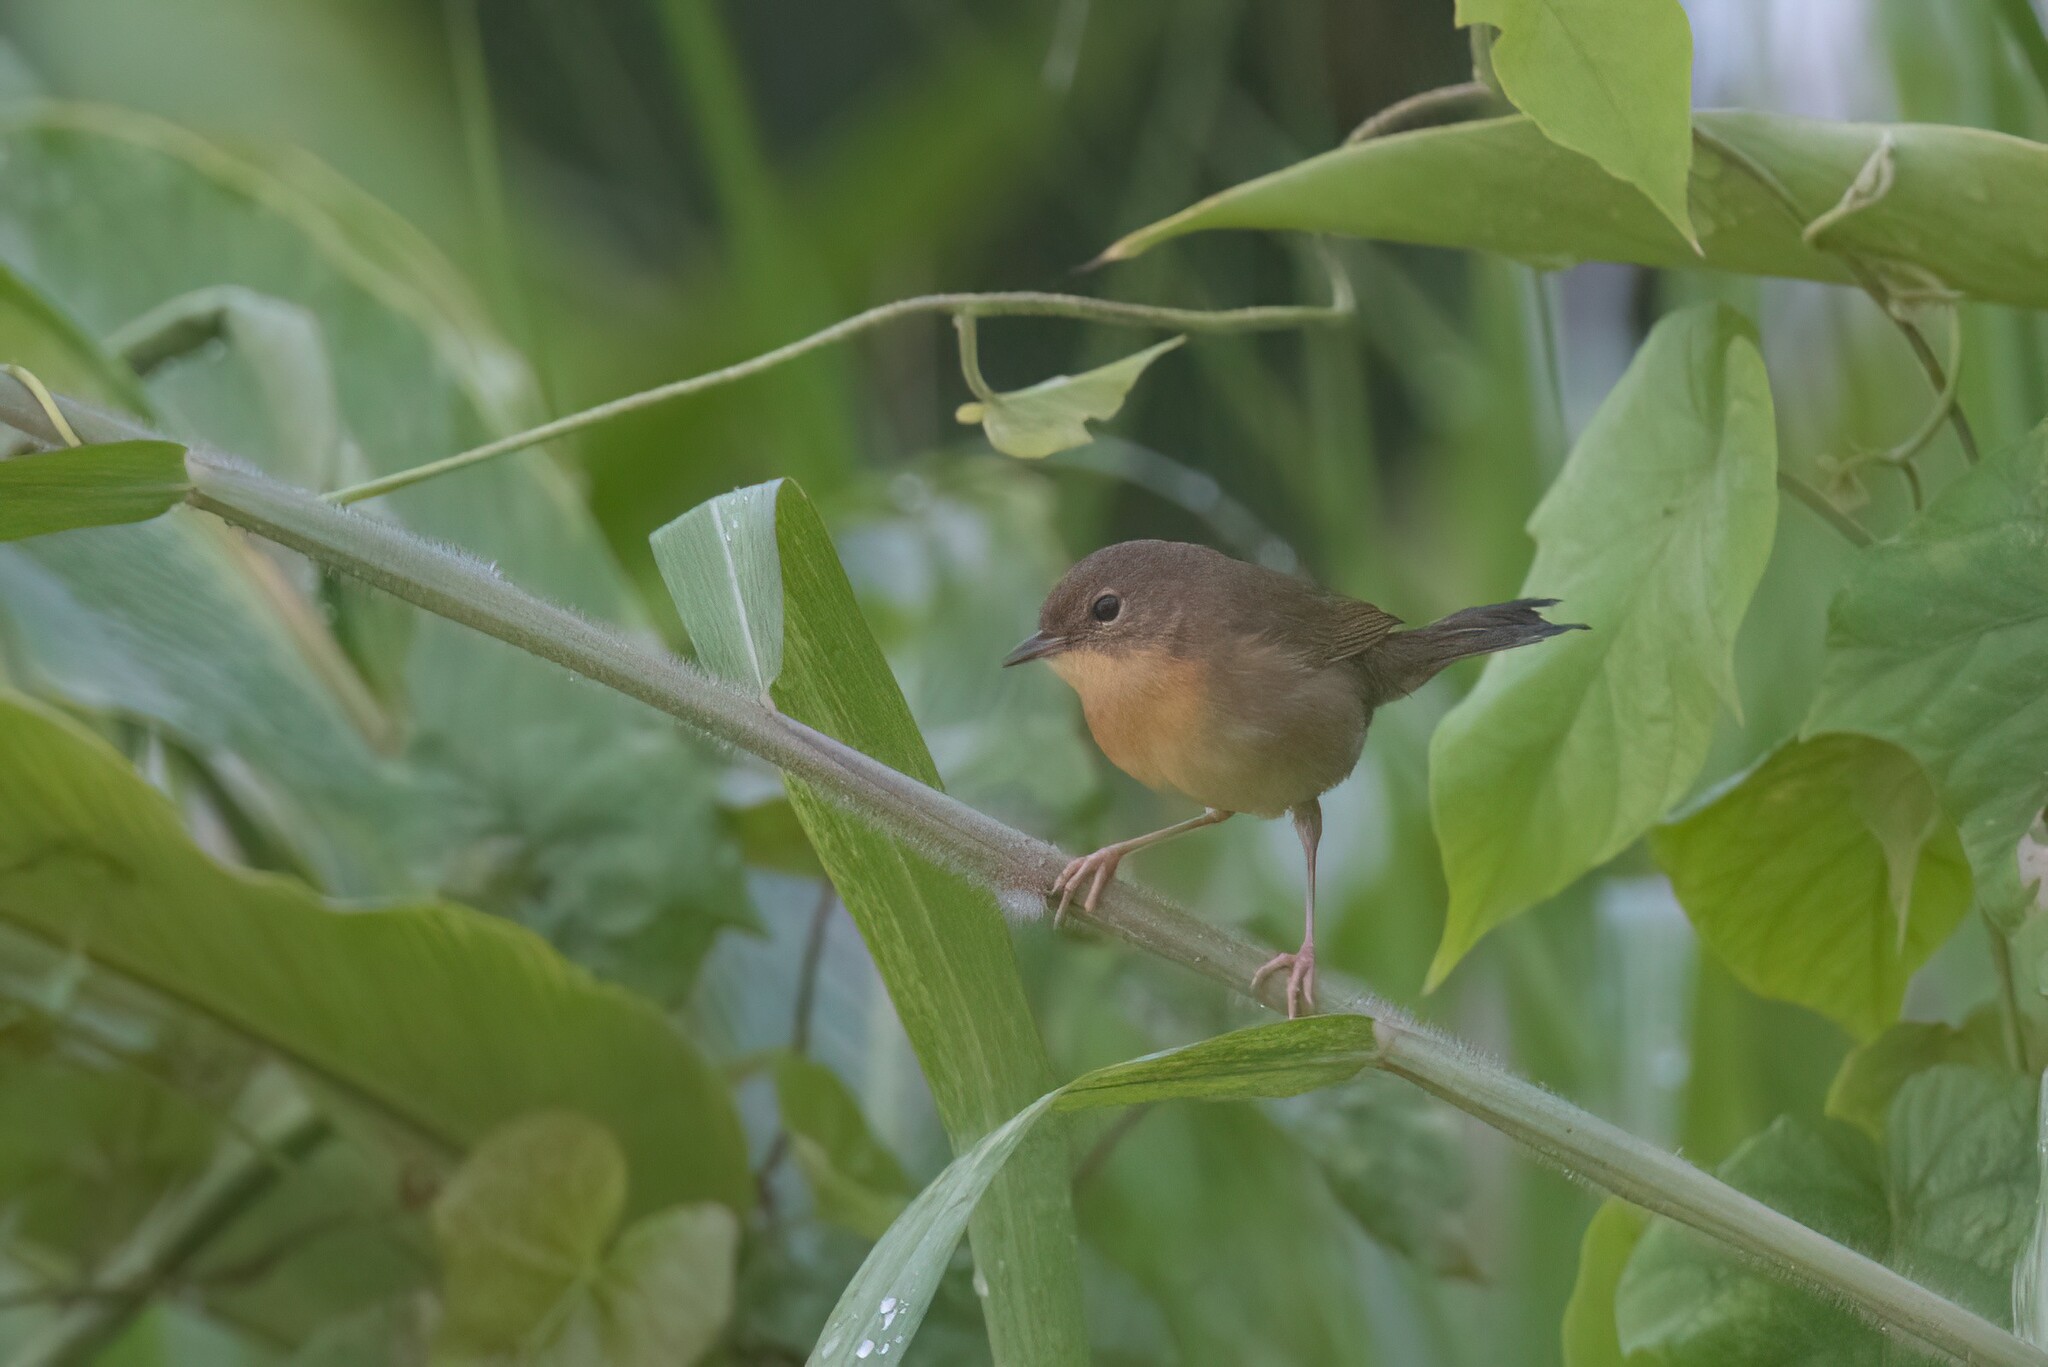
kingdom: Animalia
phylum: Chordata
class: Aves
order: Passeriformes
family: Parulidae
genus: Geothlypis
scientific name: Geothlypis trichas
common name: Common yellowthroat
